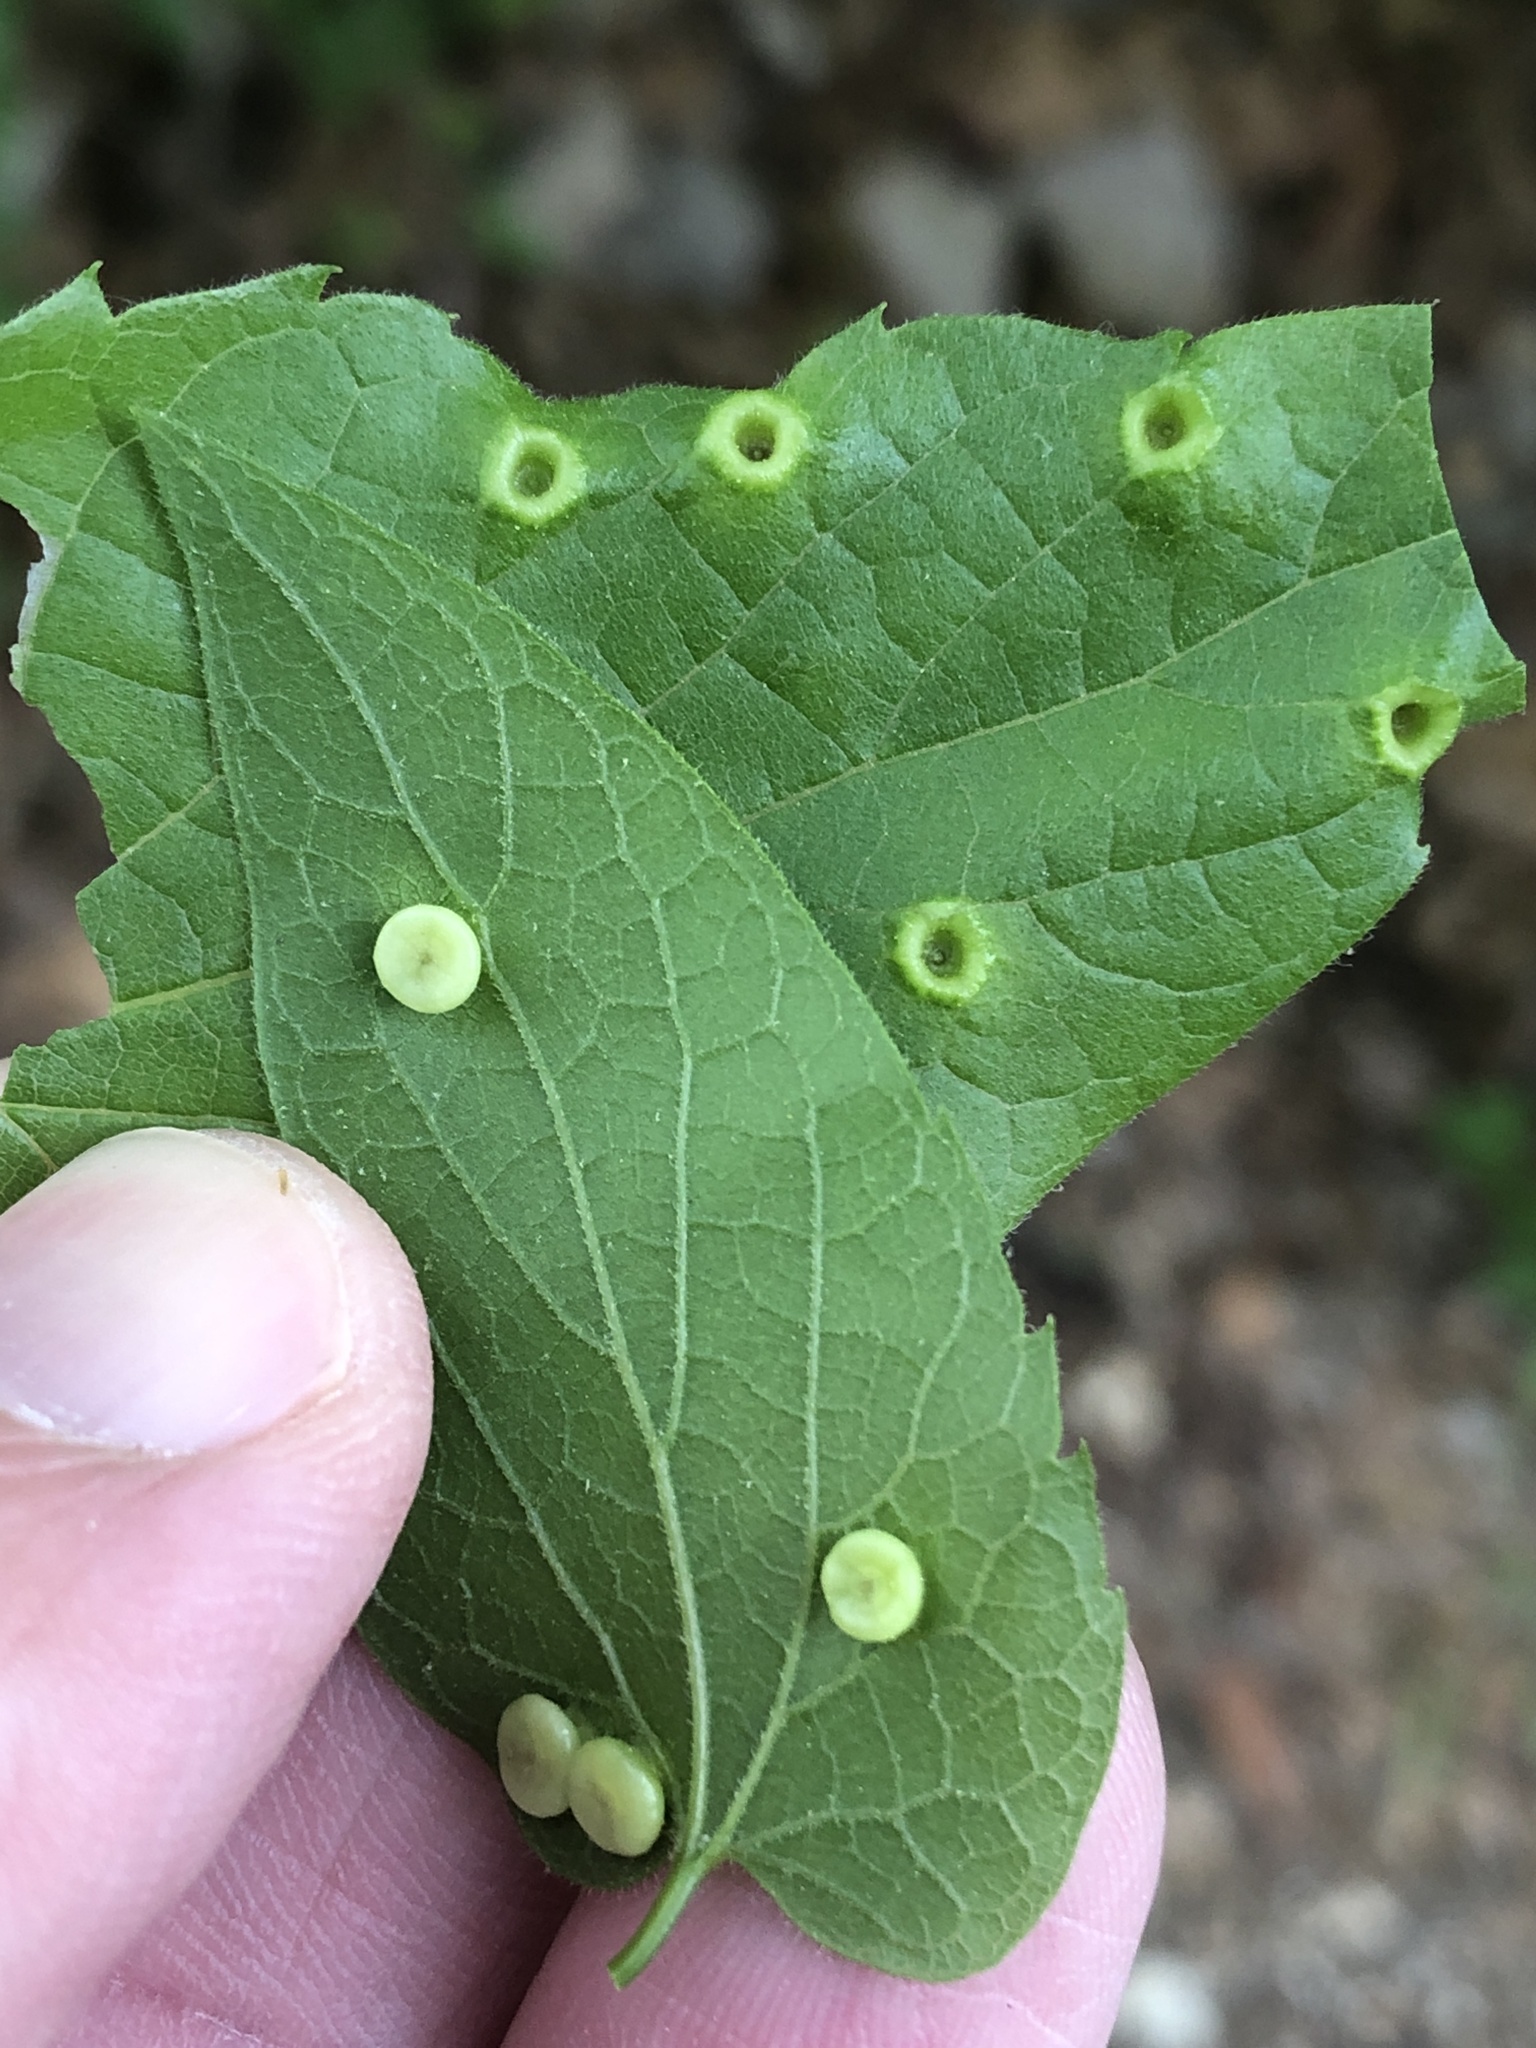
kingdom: Animalia
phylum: Arthropoda
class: Insecta
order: Hemiptera
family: Aphalaridae
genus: Pachypsylla
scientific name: Pachypsylla celtidismamma
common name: Hackberry nipplegall psyllid
